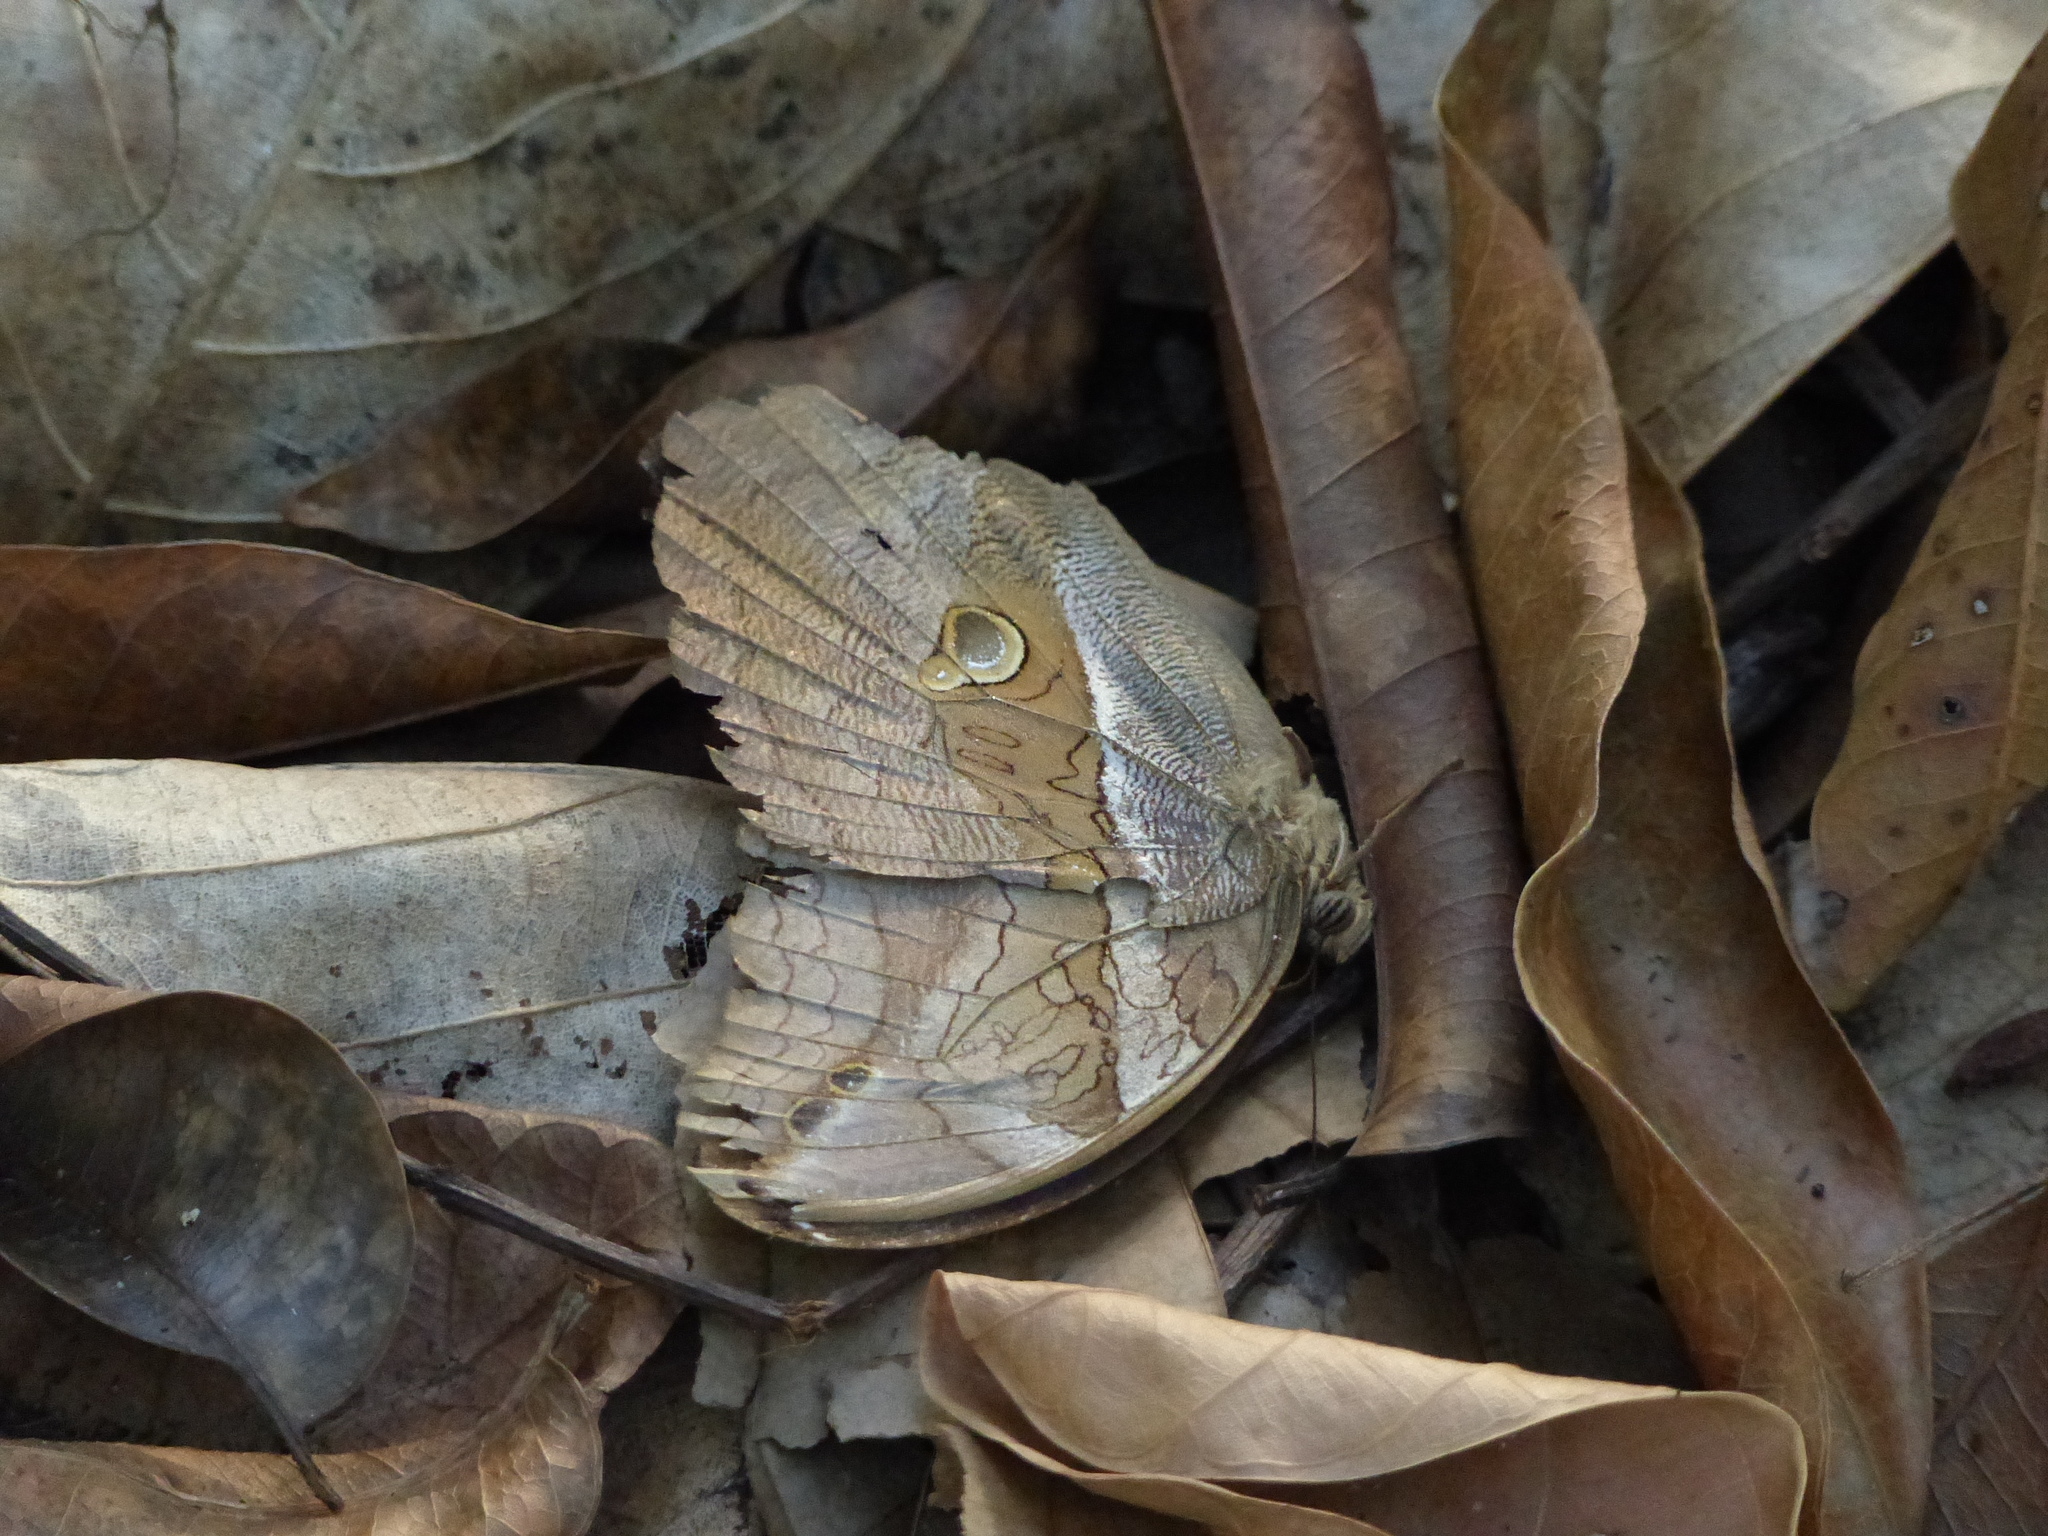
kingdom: Animalia
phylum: Arthropoda
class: Insecta
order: Lepidoptera
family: Nymphalidae
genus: Eryphanis
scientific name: Eryphanis reevesii
